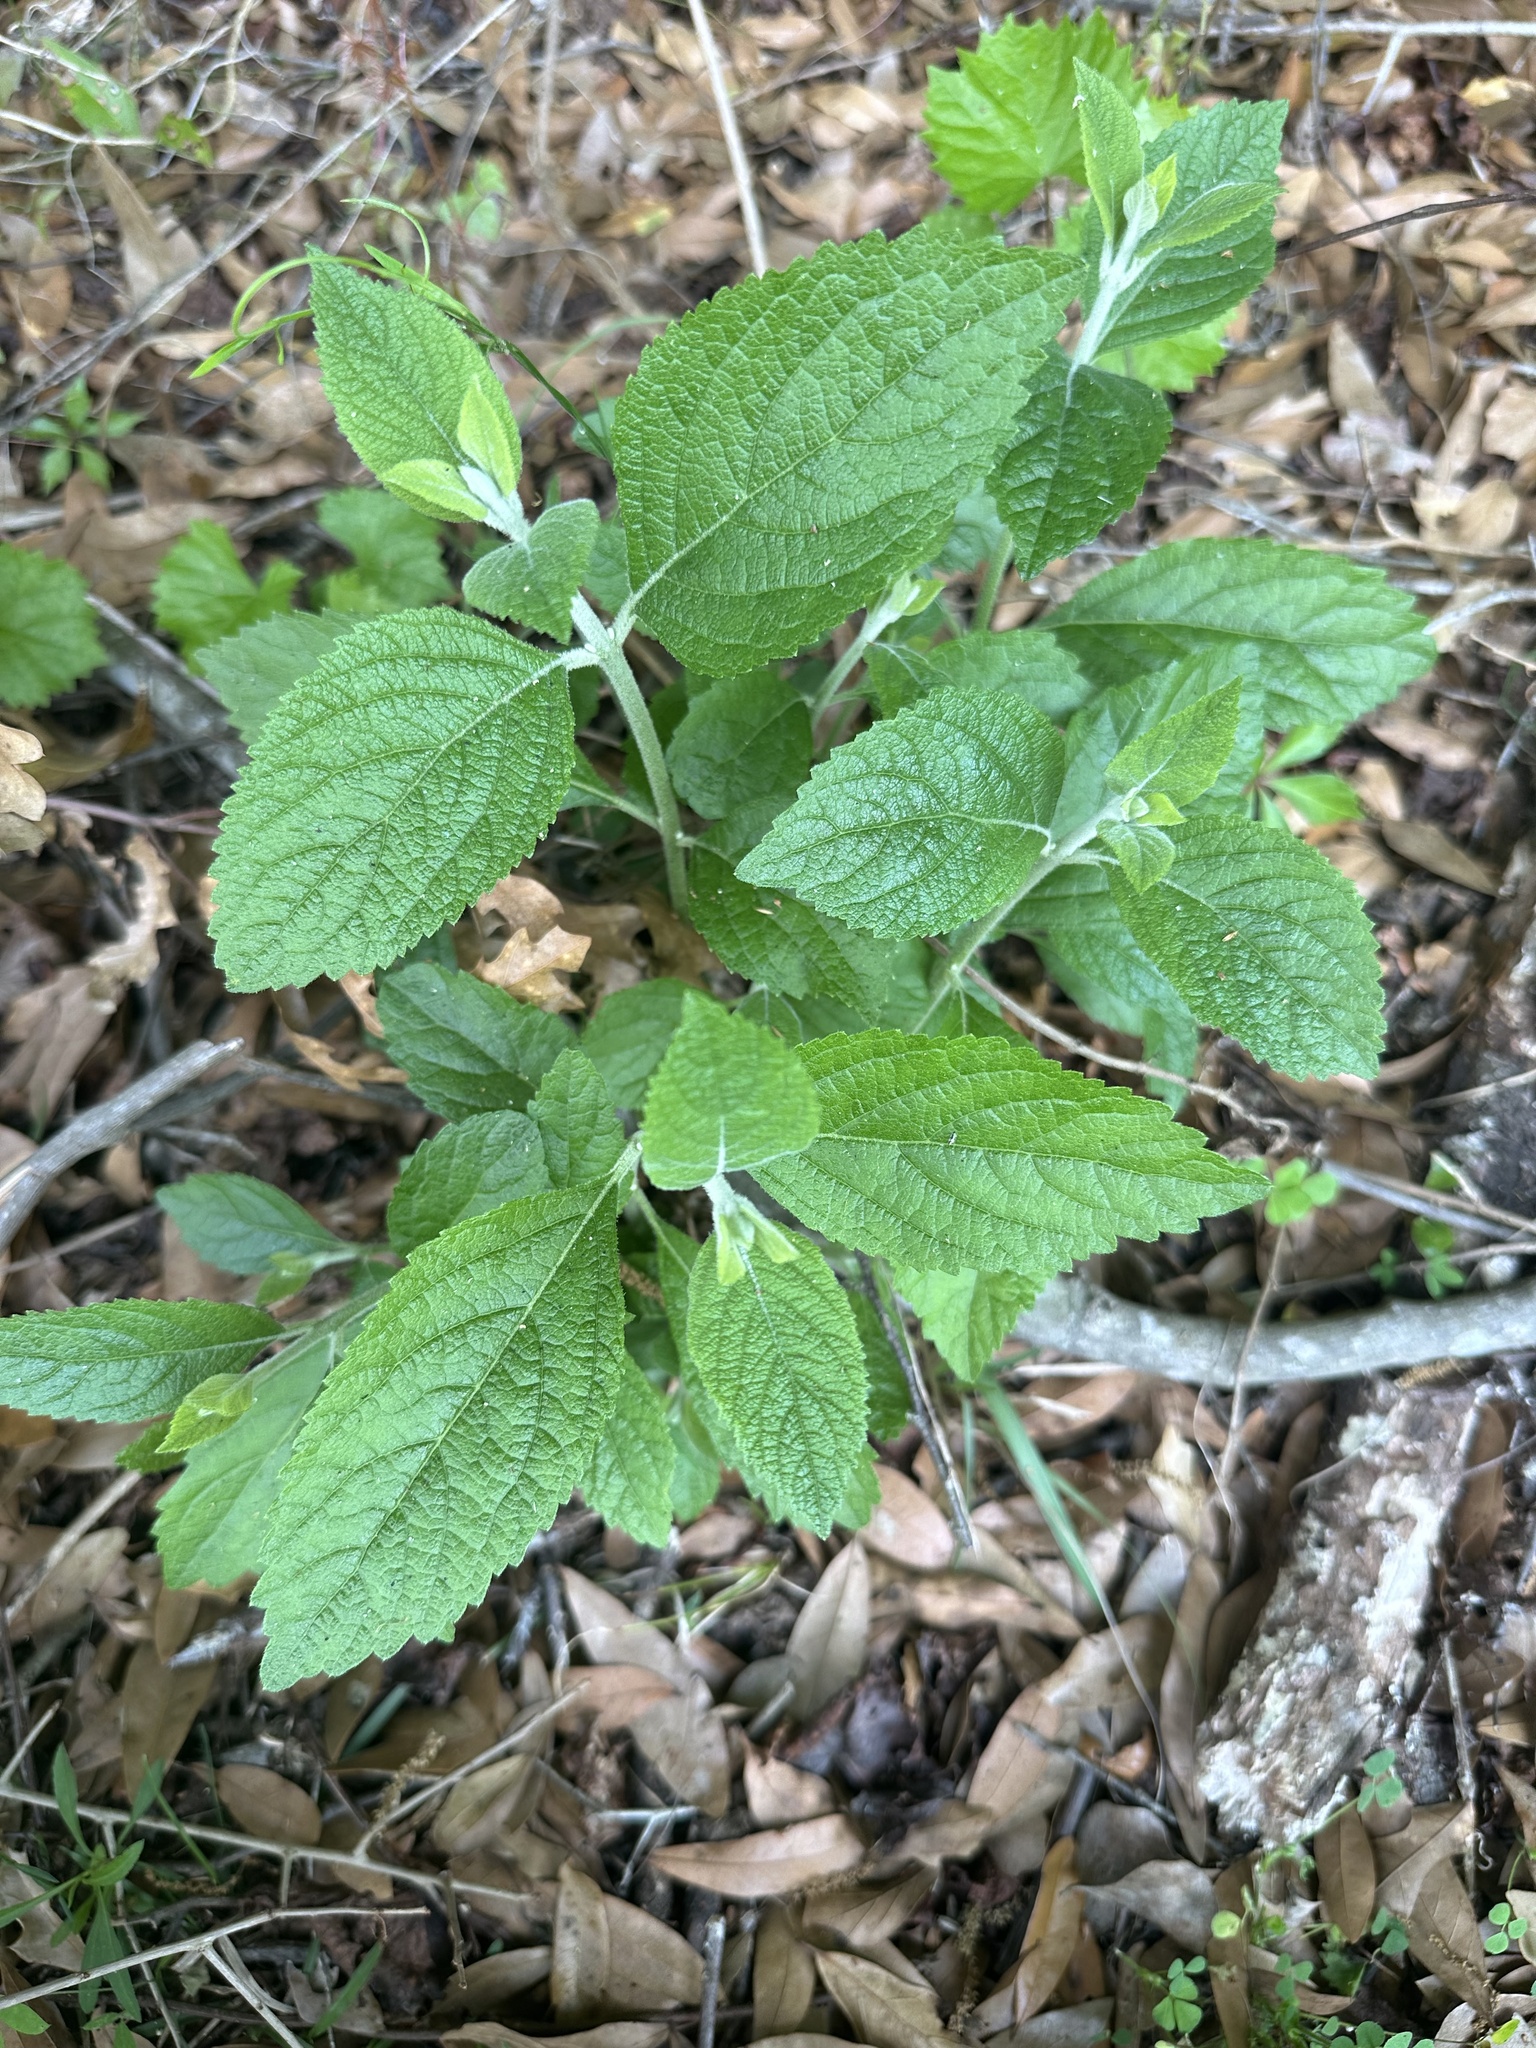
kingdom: Plantae
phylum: Tracheophyta
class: Magnoliopsida
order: Lamiales
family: Lamiaceae
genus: Callicarpa
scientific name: Callicarpa americana
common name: American beautyberry
